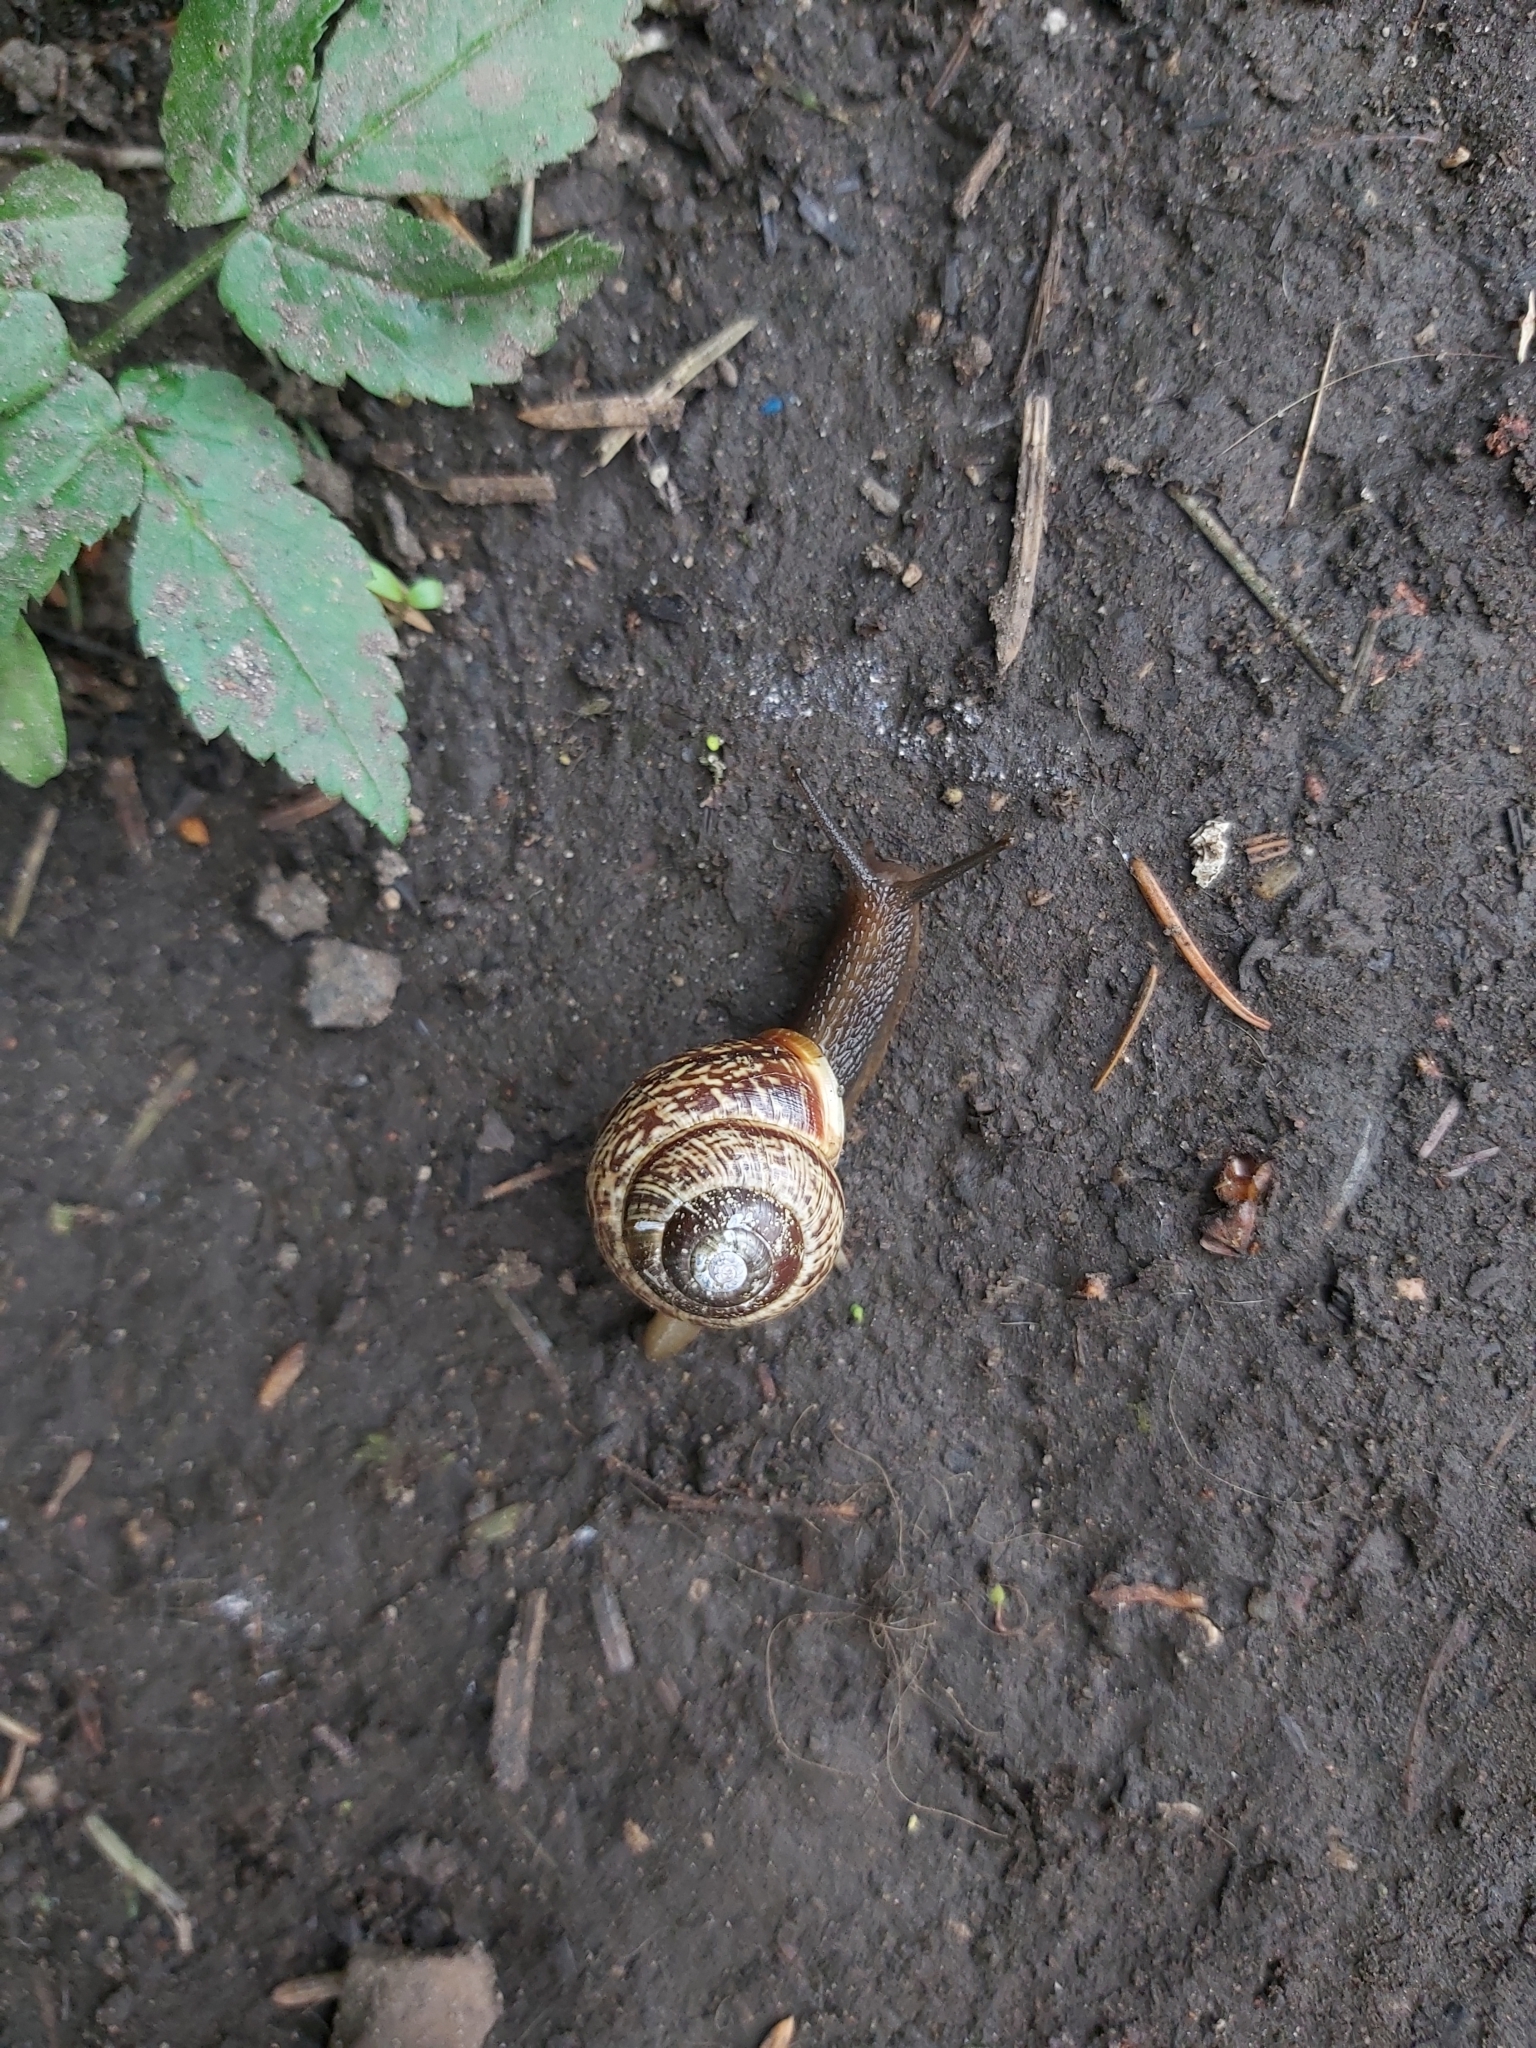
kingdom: Animalia
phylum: Mollusca
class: Gastropoda
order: Stylommatophora
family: Helicidae
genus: Arianta
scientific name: Arianta arbustorum
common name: Copse snail
